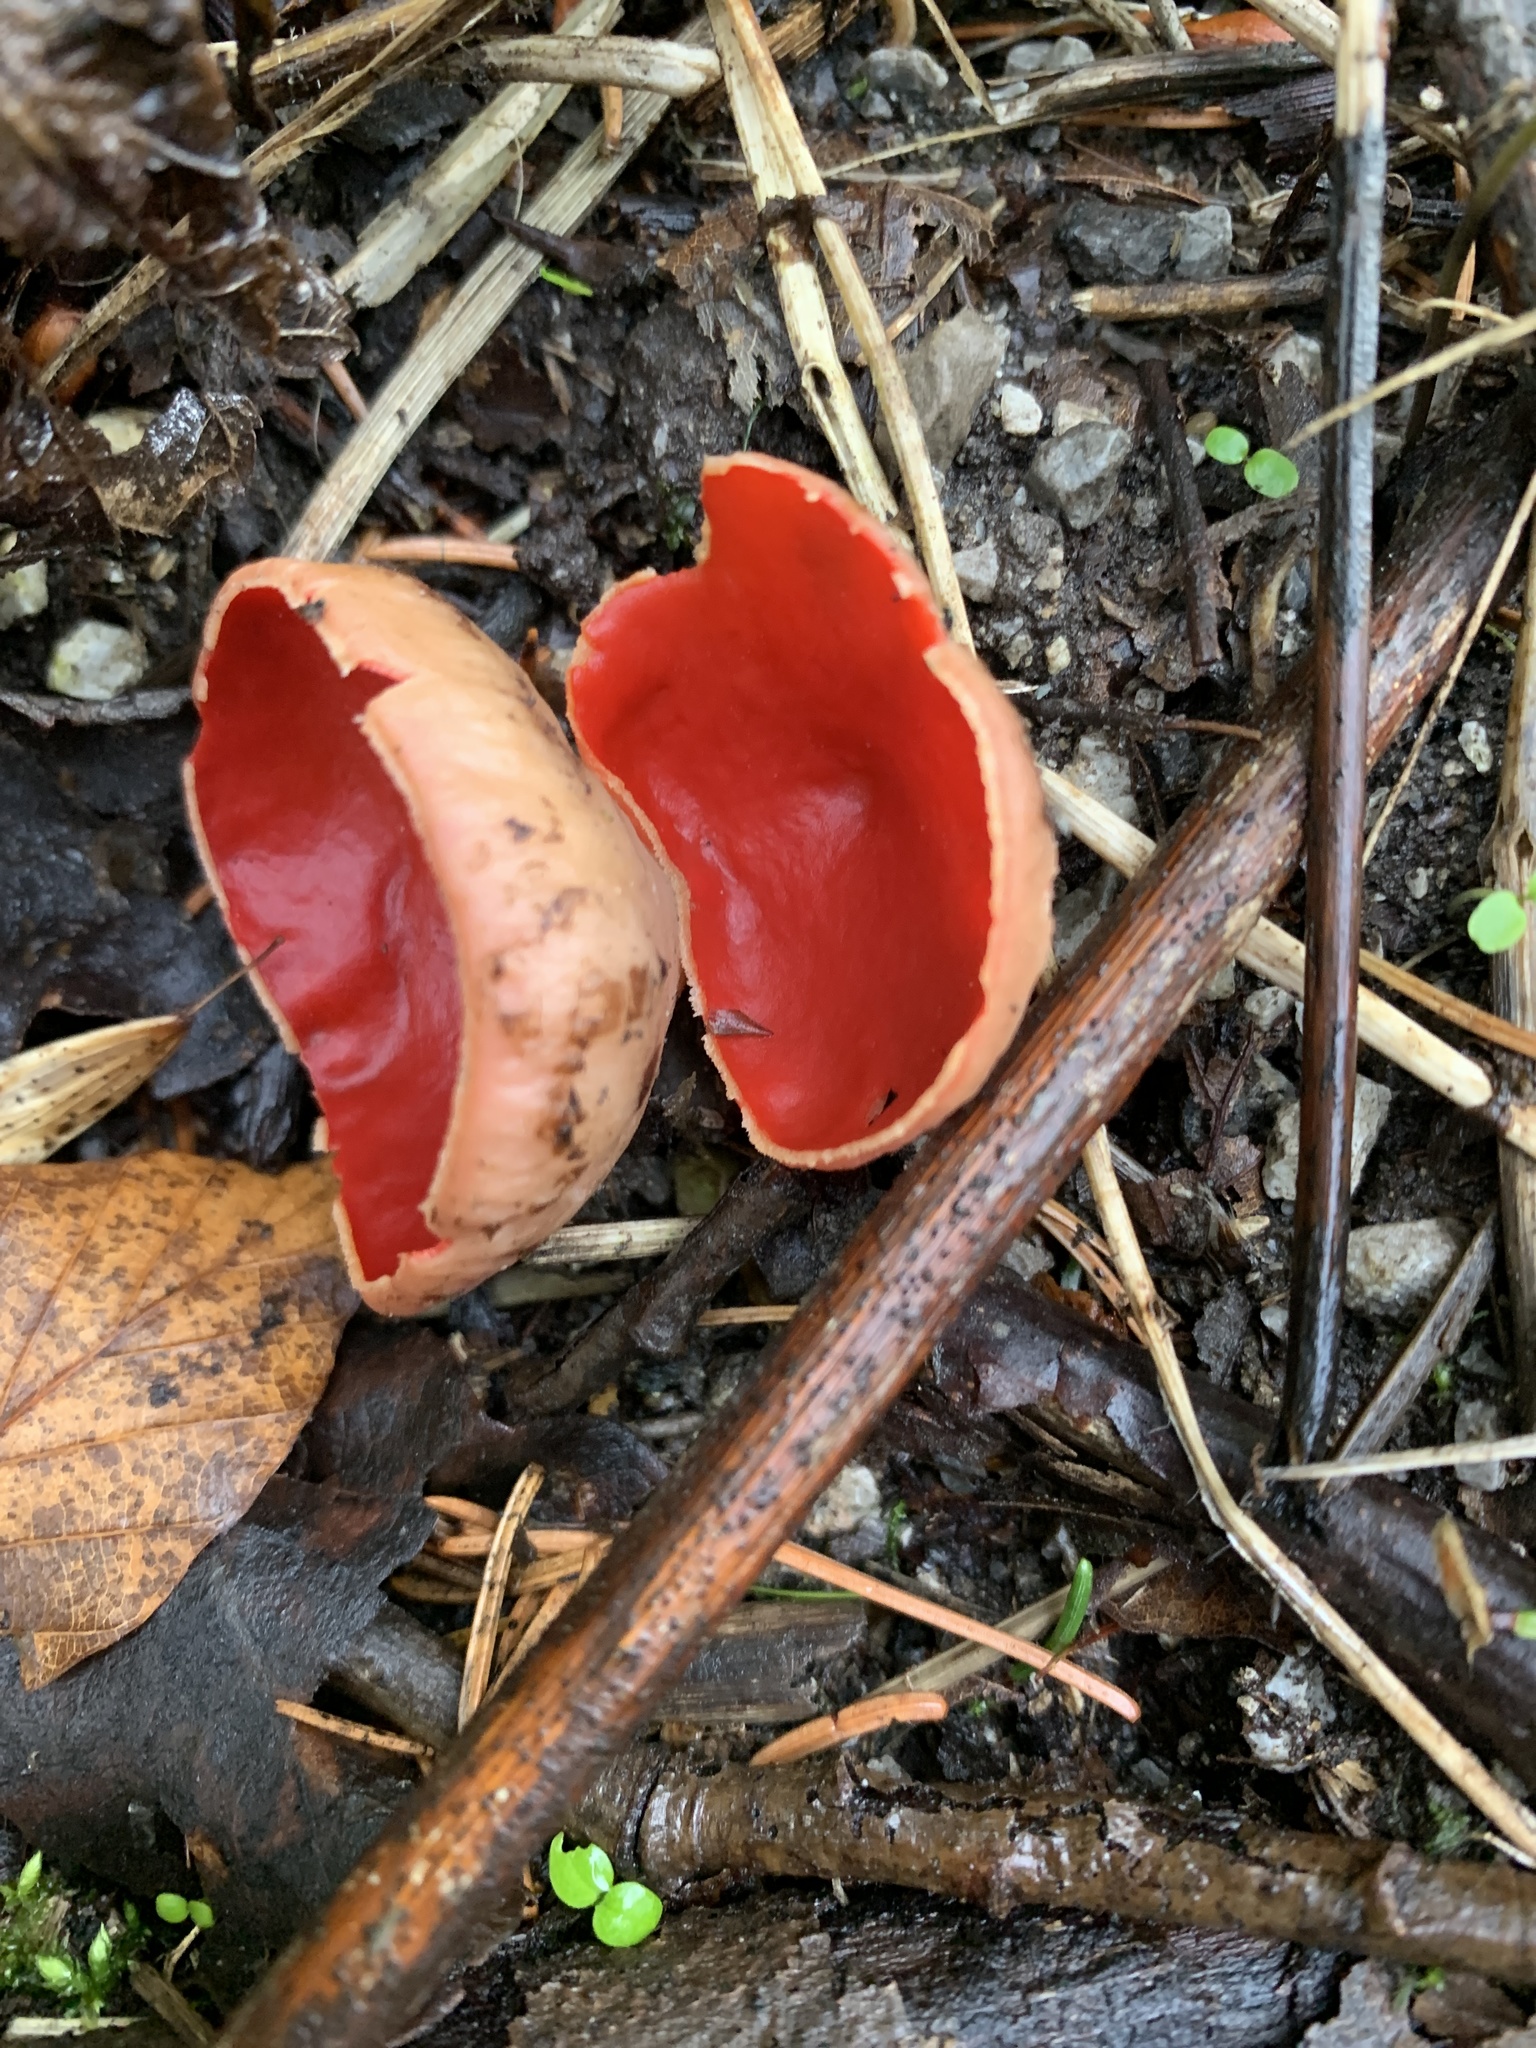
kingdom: Fungi
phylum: Ascomycota
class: Pezizomycetes
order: Pezizales
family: Sarcoscyphaceae
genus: Sarcoscypha
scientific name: Sarcoscypha
